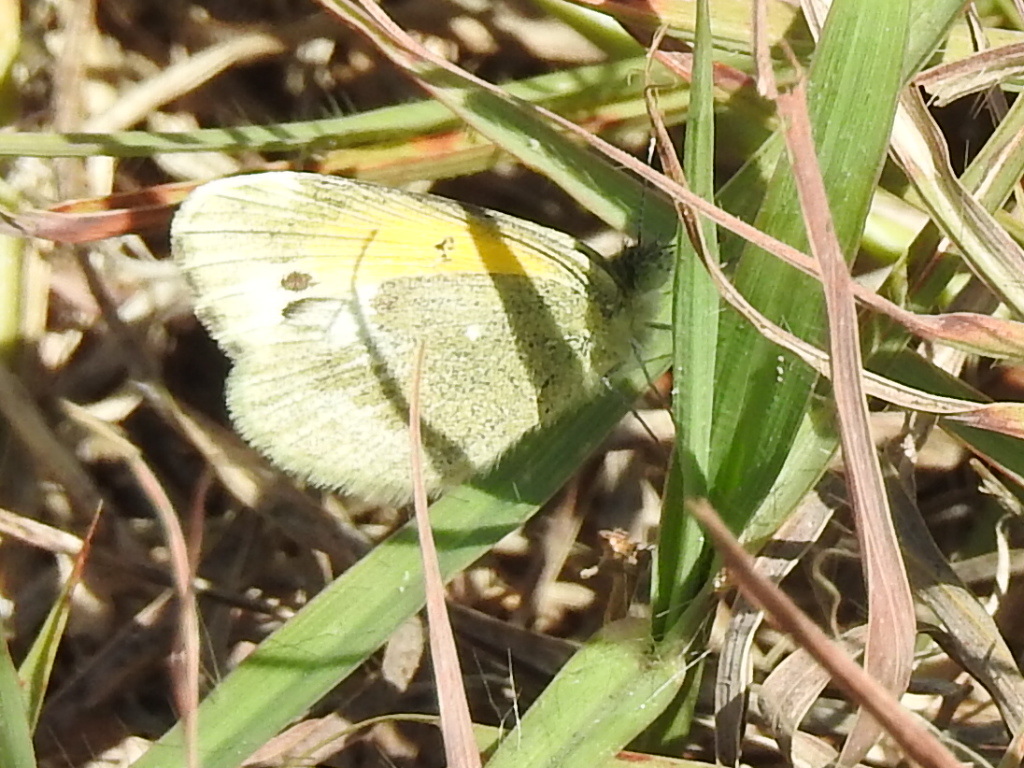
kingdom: Animalia
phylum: Arthropoda
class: Insecta
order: Lepidoptera
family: Pieridae
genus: Nathalis
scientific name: Nathalis iole
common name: Dainty sulphur
